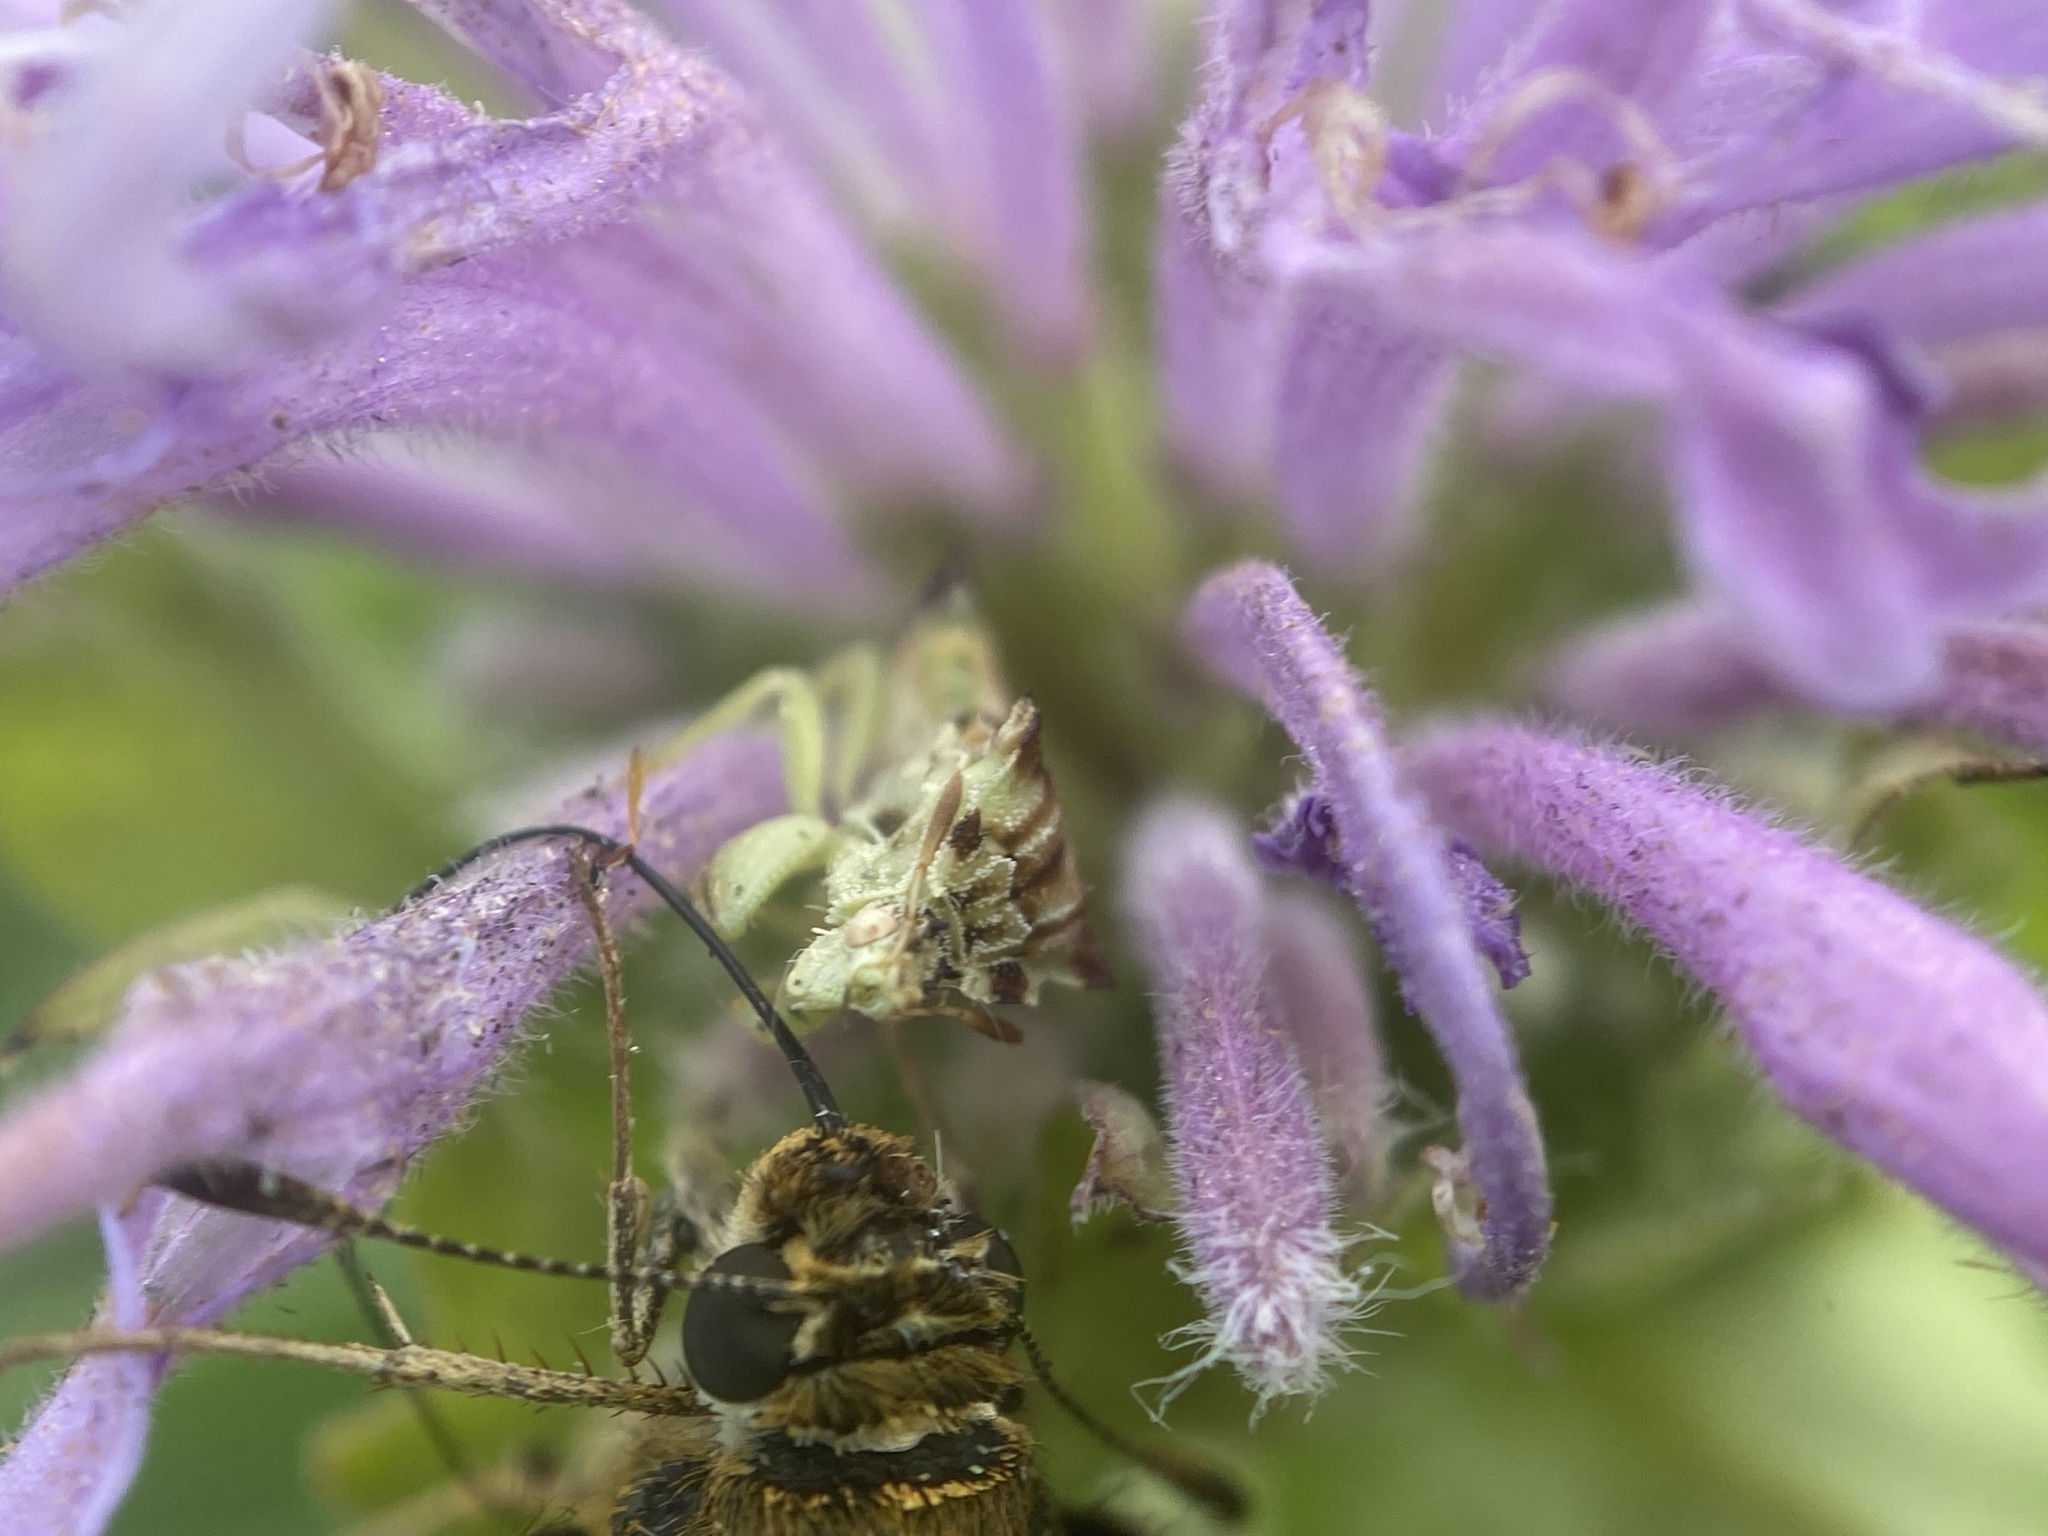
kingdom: Animalia
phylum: Arthropoda
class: Insecta
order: Lepidoptera
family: Hesperiidae
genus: Lon
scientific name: Lon hobomok
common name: Hobomok skipper
